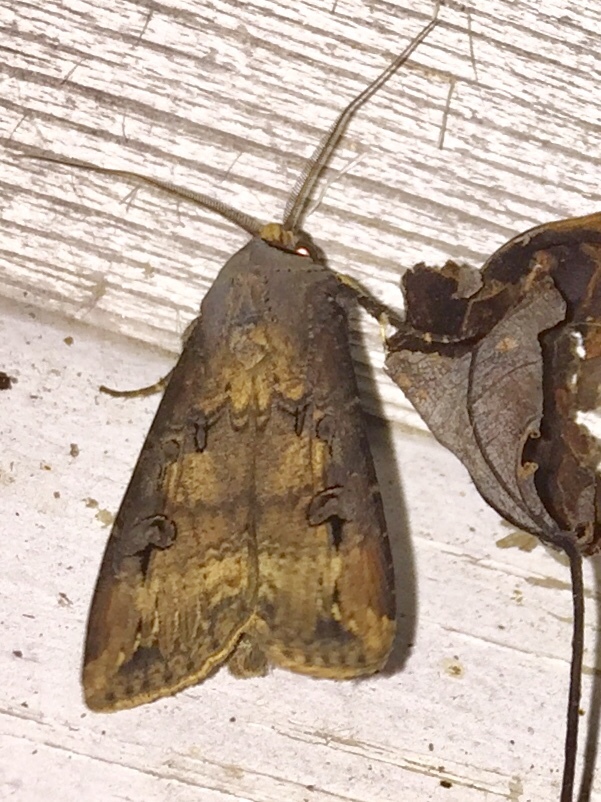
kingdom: Animalia
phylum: Arthropoda
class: Insecta
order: Lepidoptera
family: Noctuidae
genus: Agrotis
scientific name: Agrotis ipsilon
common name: Dark sword-grass
